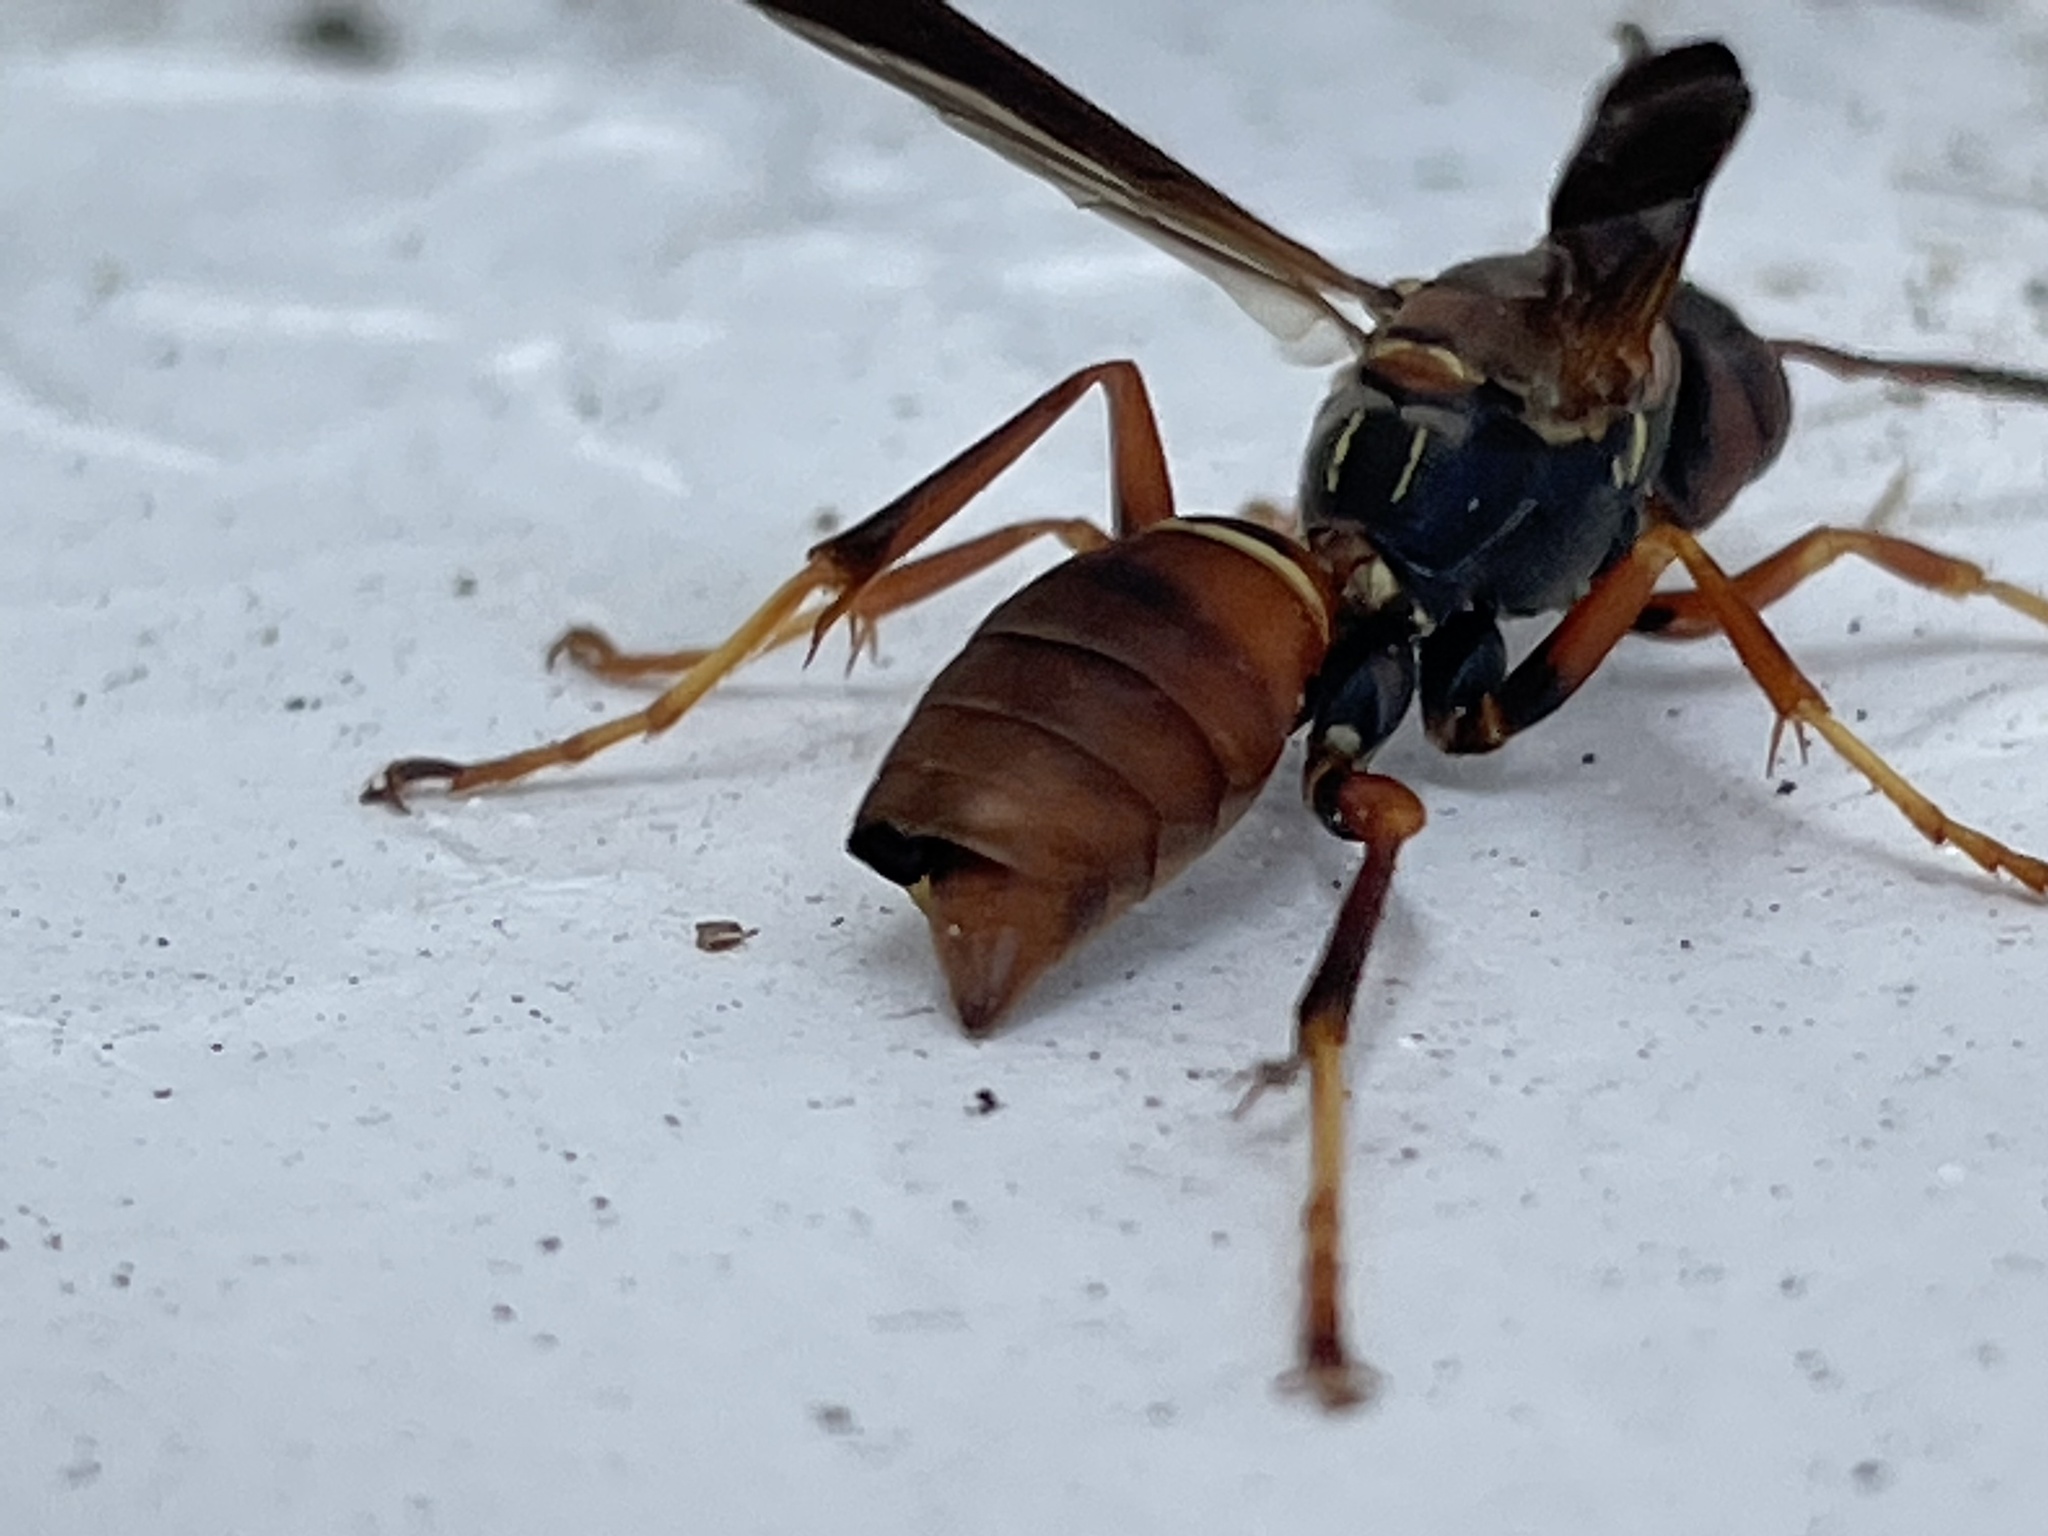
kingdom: Animalia
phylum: Arthropoda
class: Insecta
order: Strepsiptera
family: Xenidae
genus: Xenos
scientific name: Xenos pecki
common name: Twisted wing parasite
